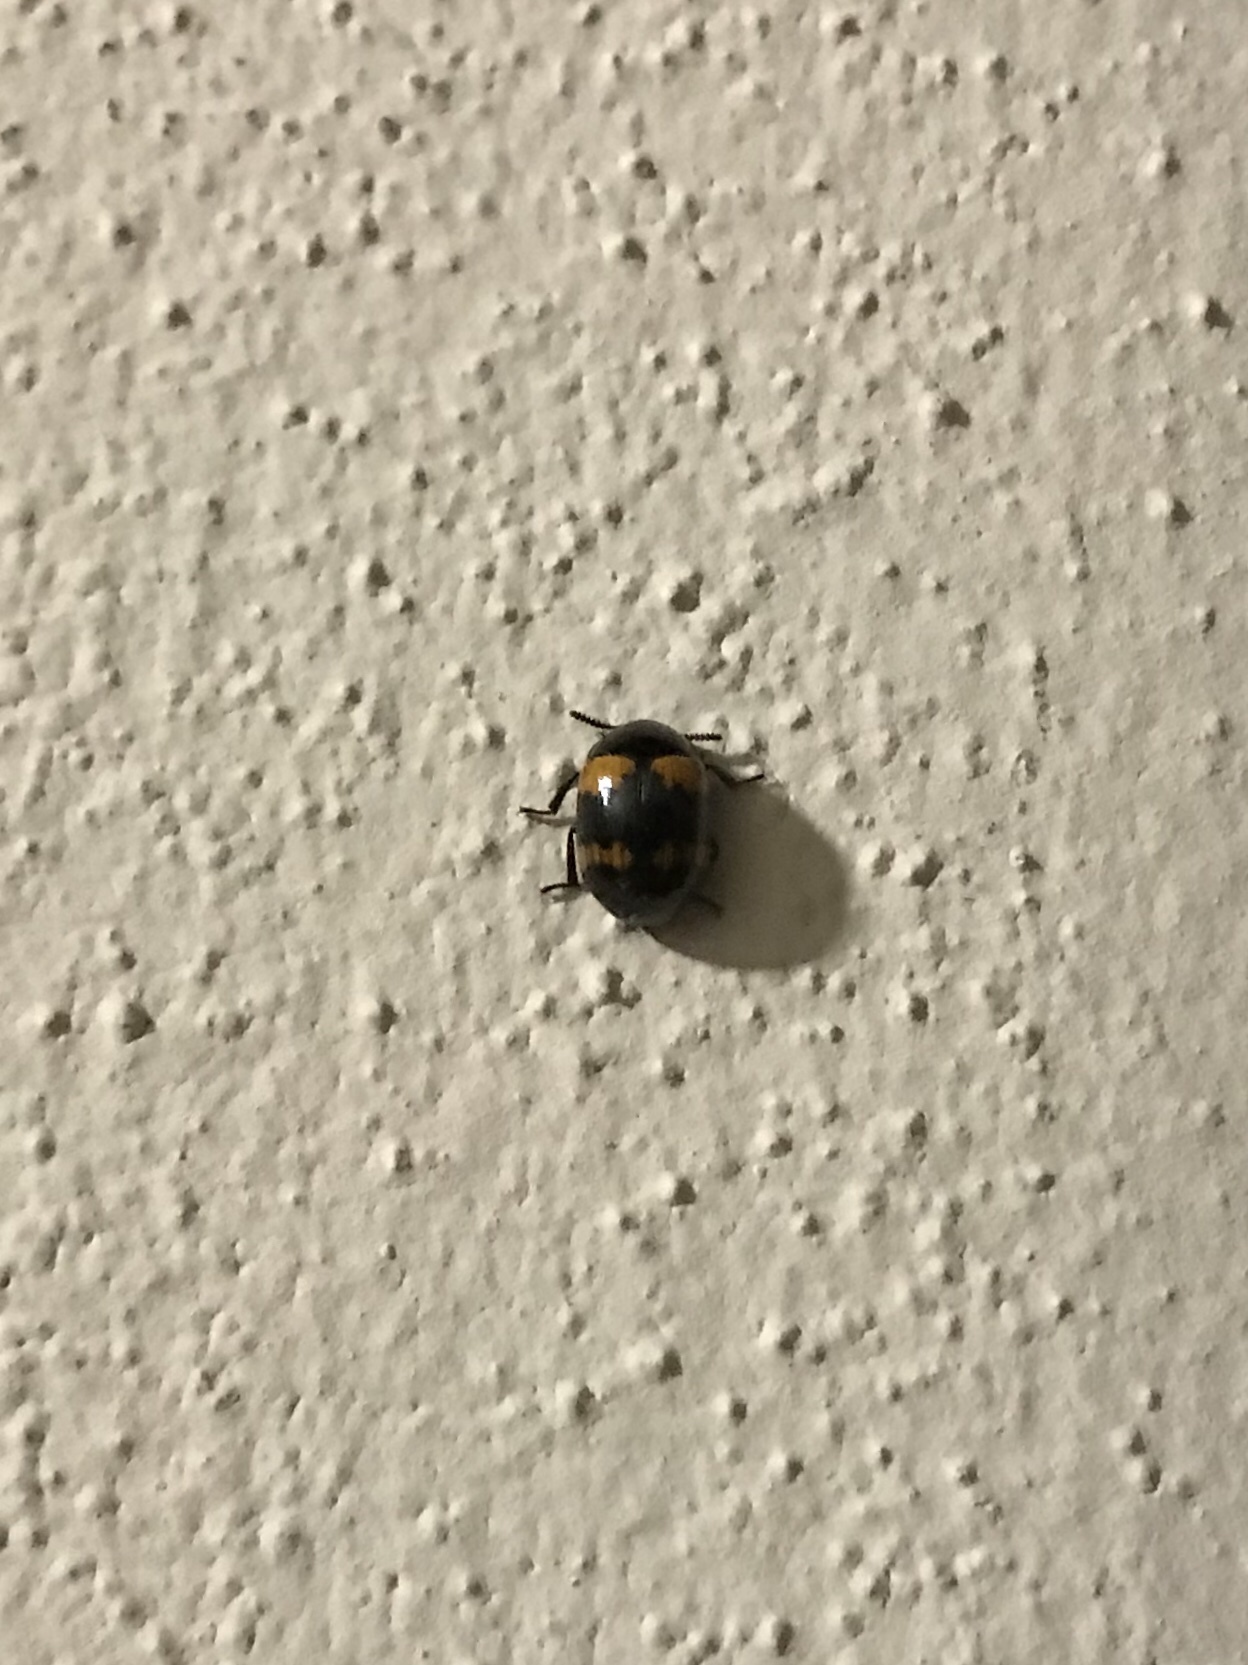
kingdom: Animalia
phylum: Arthropoda
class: Insecta
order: Coleoptera
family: Tenebrionidae
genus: Diaperis
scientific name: Diaperis boleti
